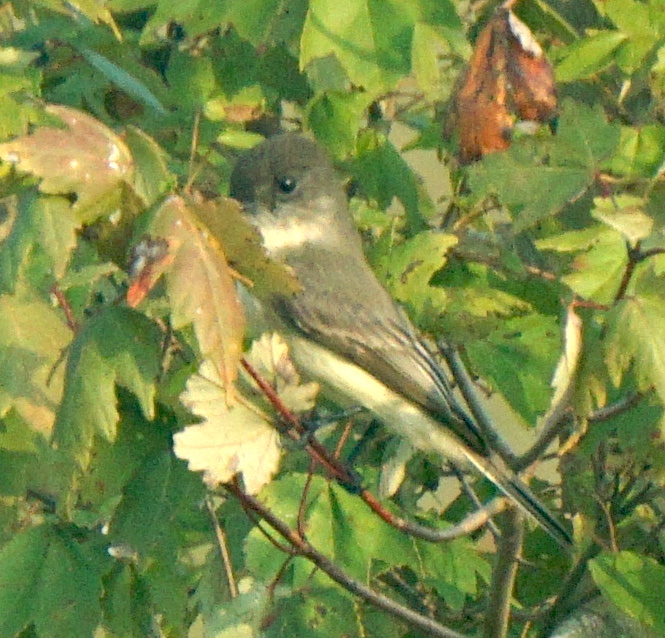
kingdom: Animalia
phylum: Chordata
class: Aves
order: Passeriformes
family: Tyrannidae
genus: Sayornis
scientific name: Sayornis phoebe
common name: Eastern phoebe
